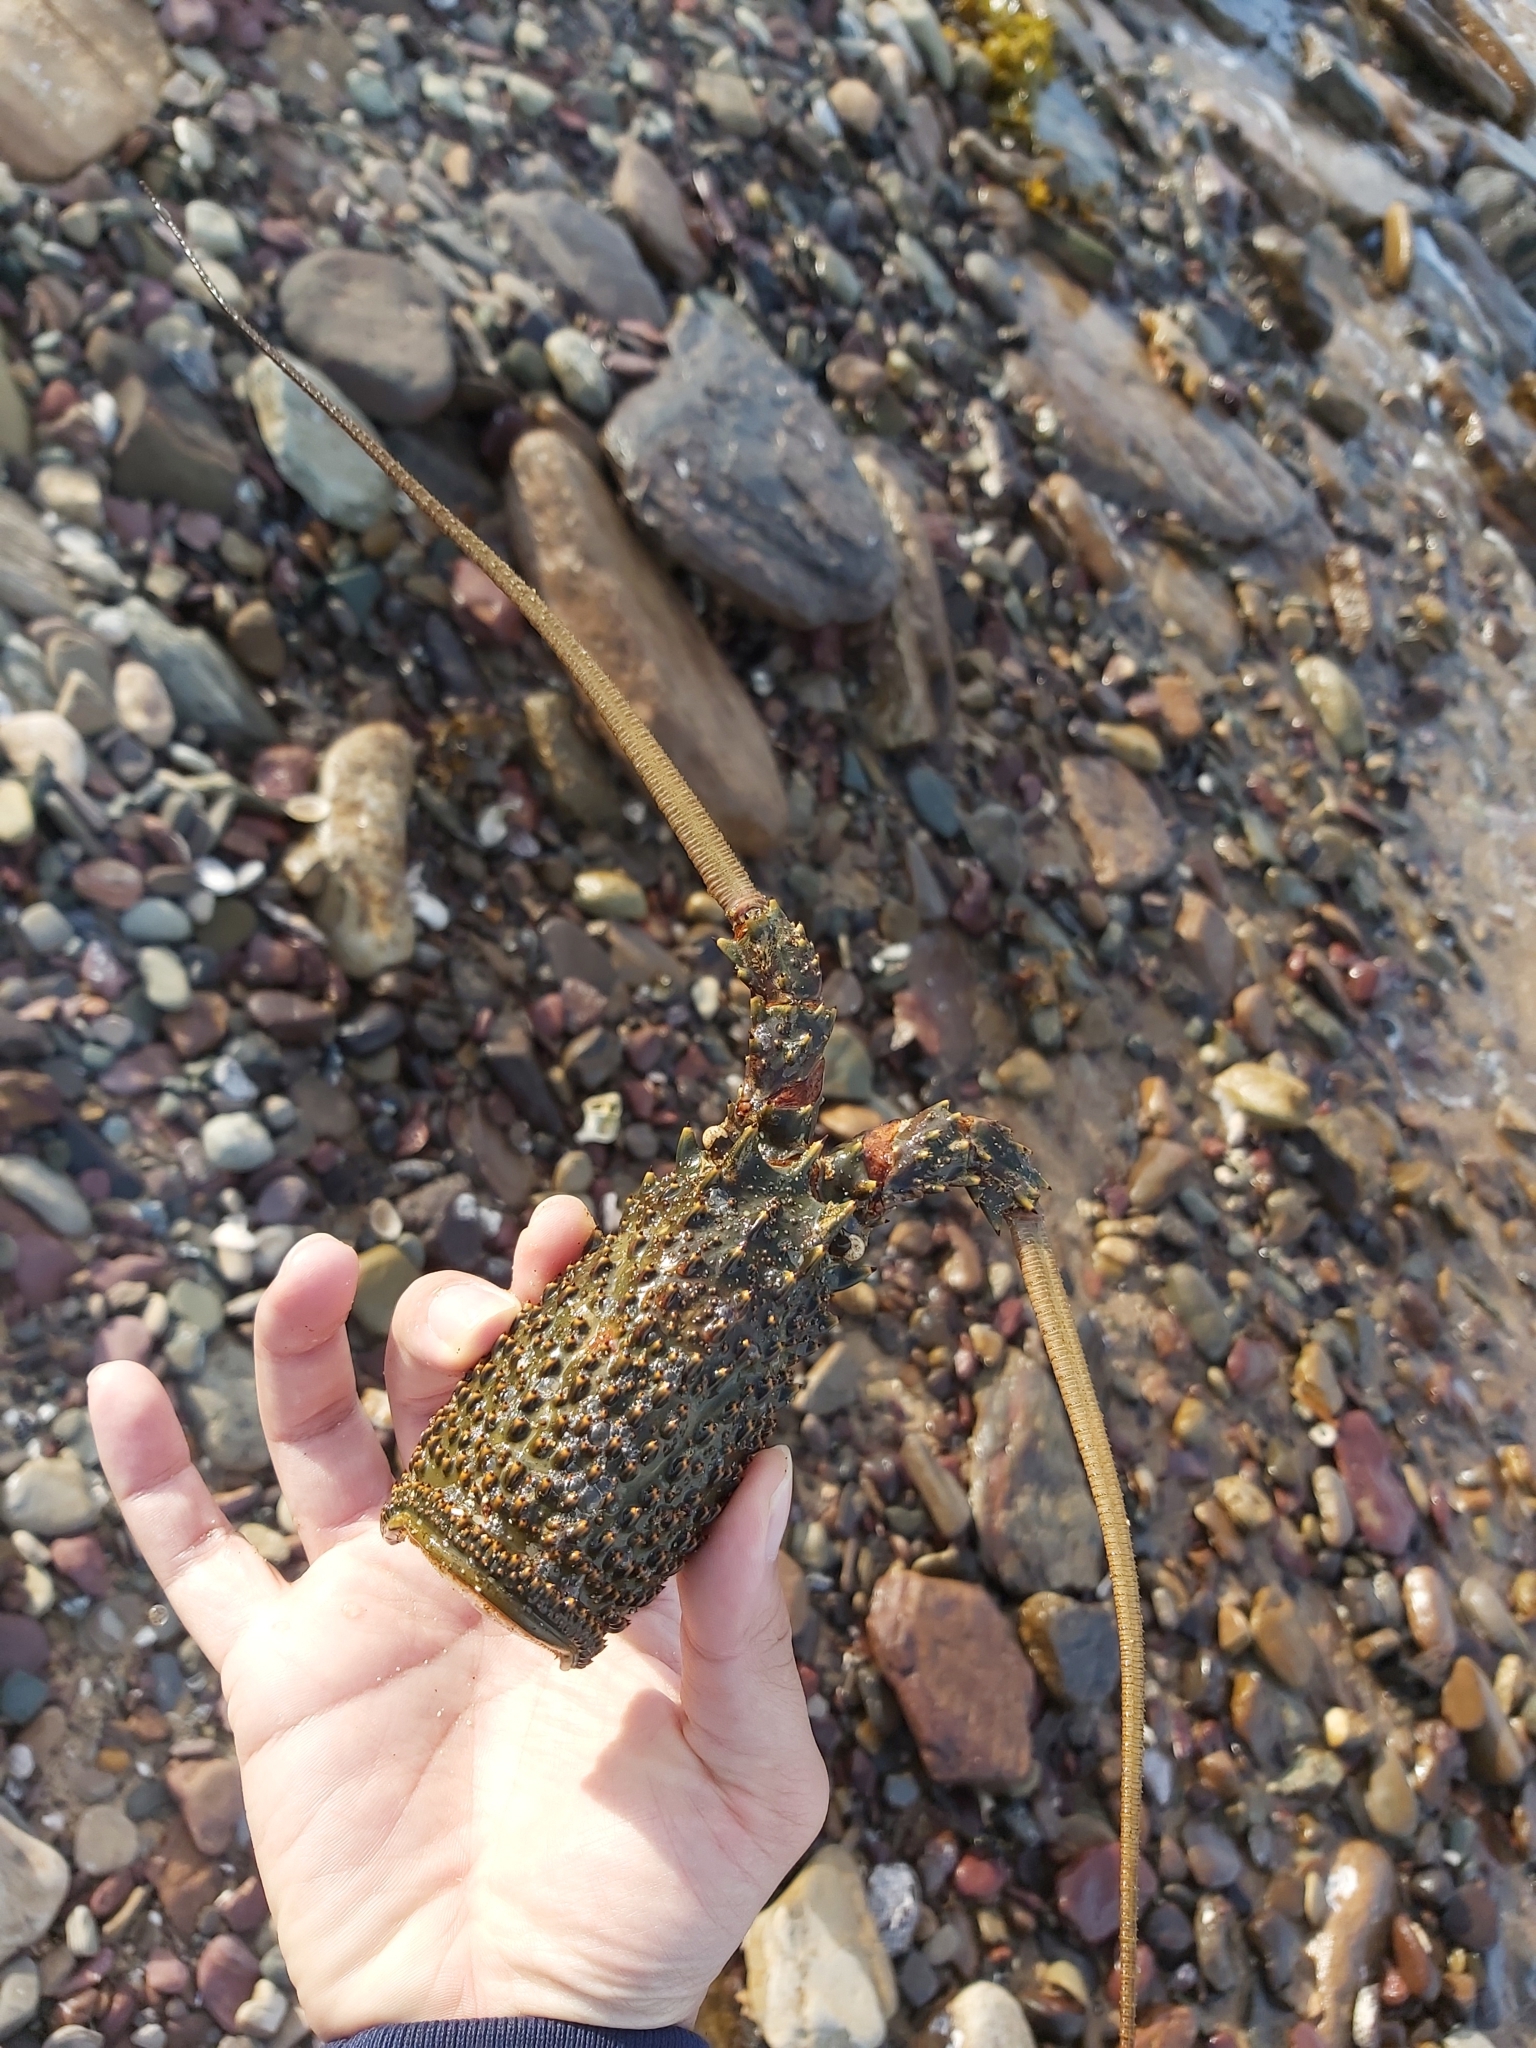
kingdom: Animalia
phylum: Arthropoda
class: Malacostraca
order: Decapoda
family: Palinuridae
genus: Sagmariasus
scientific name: Sagmariasus verreauxi
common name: Green rock lobster
